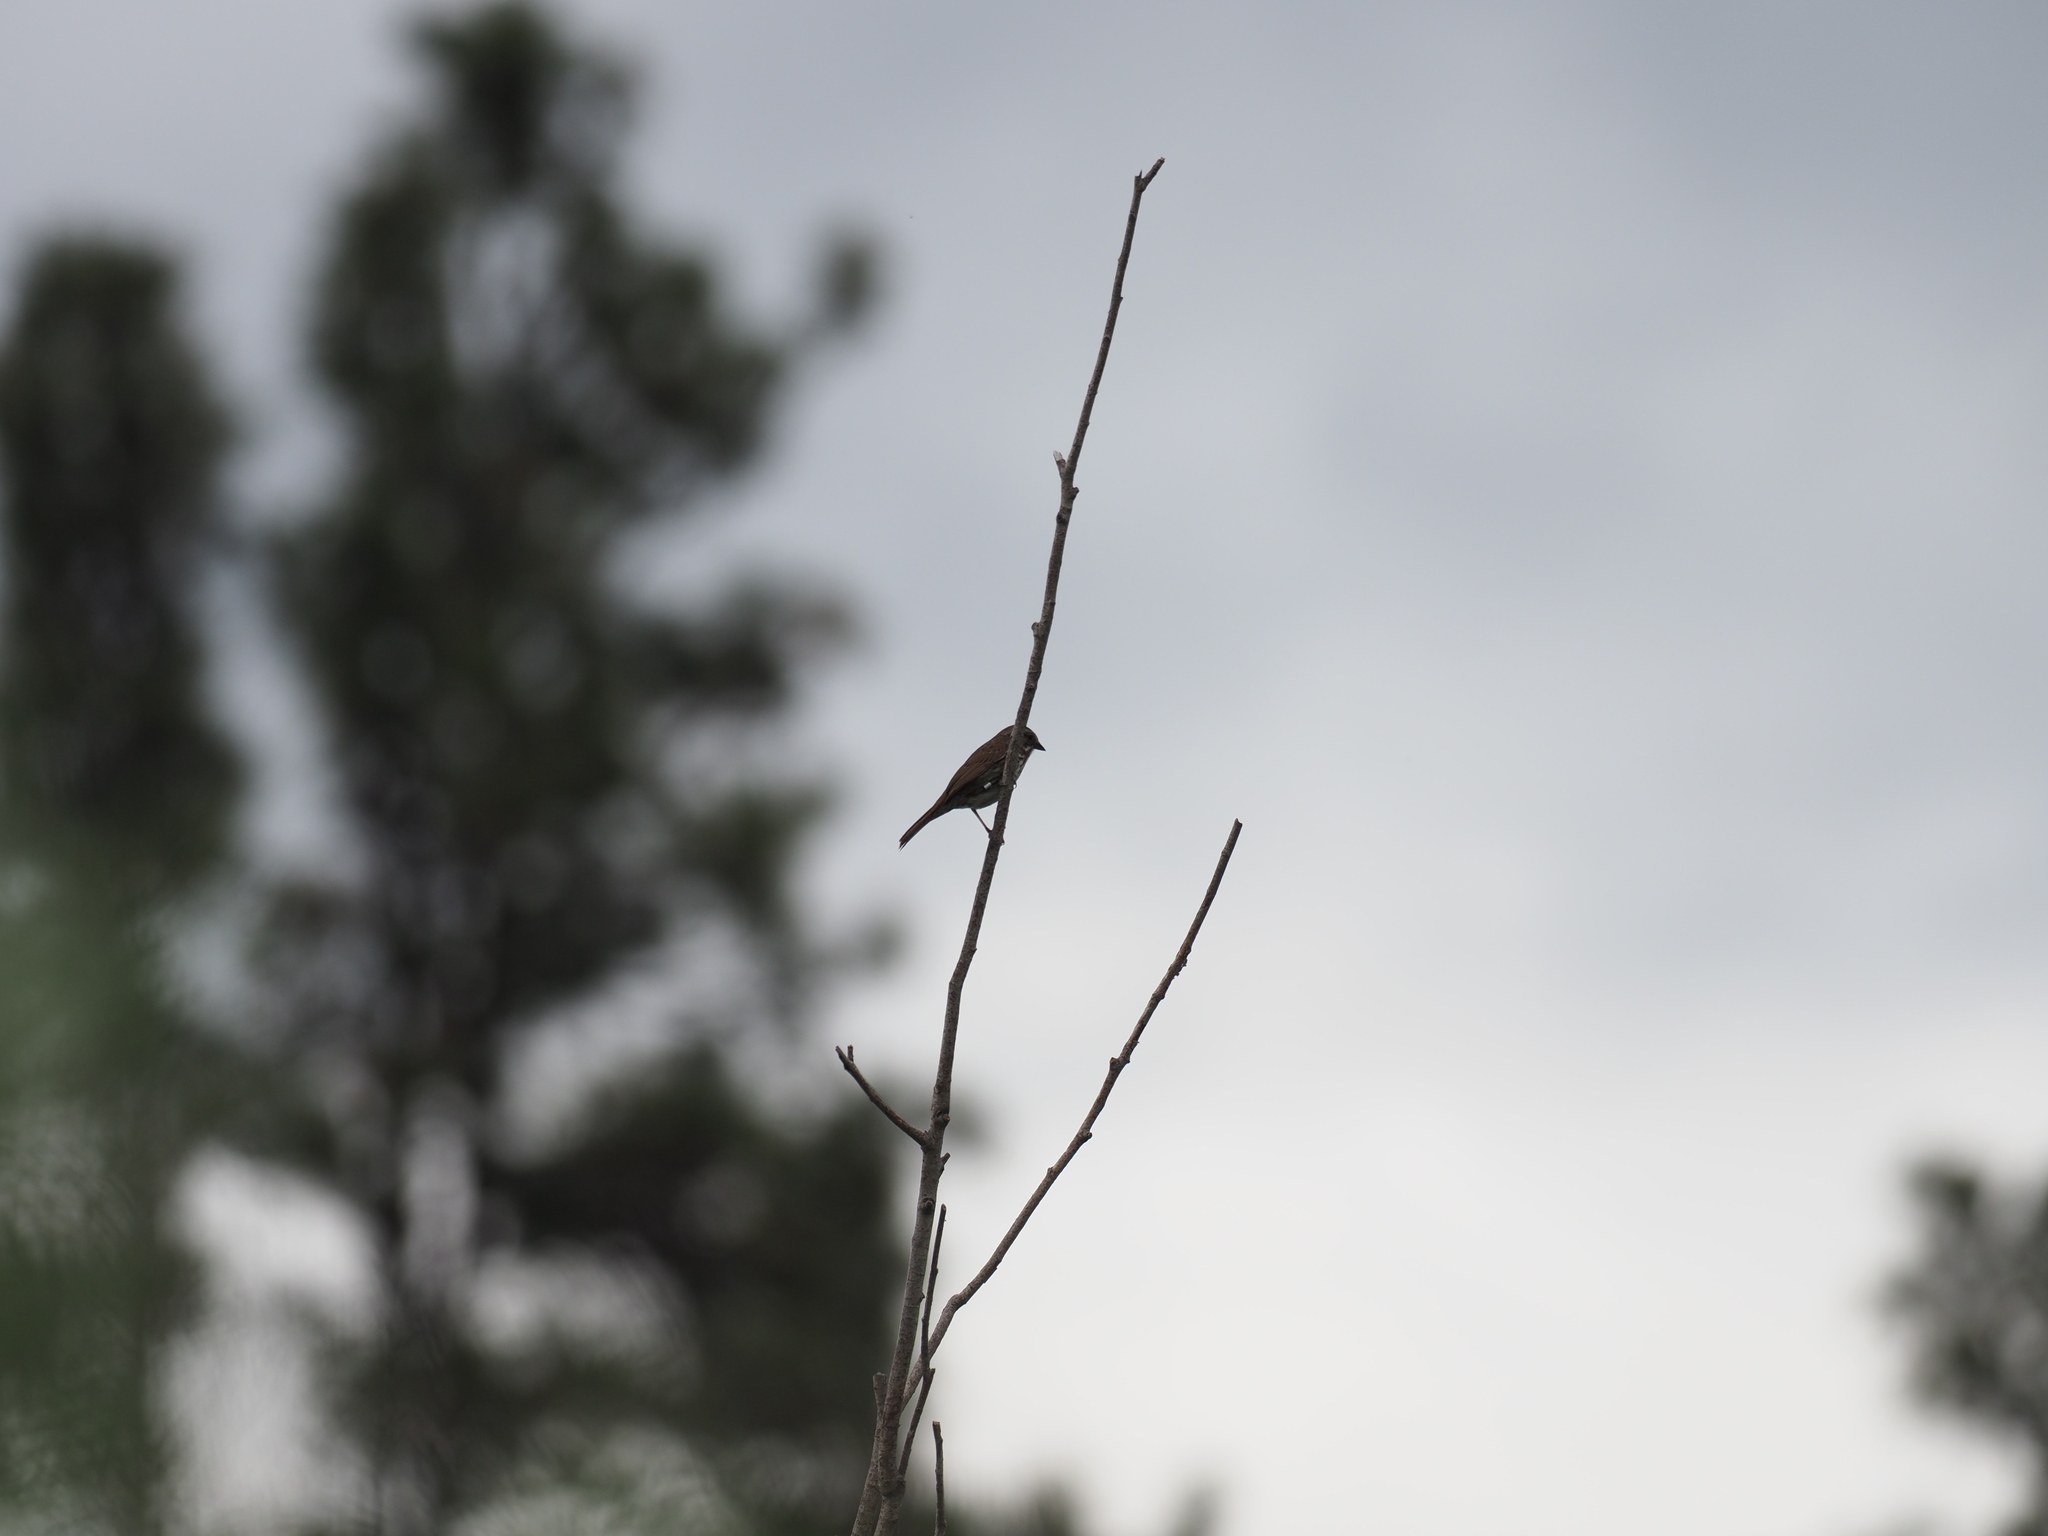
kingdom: Animalia
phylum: Chordata
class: Aves
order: Passeriformes
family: Passerellidae
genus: Melospiza
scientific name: Melospiza melodia
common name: Song sparrow
